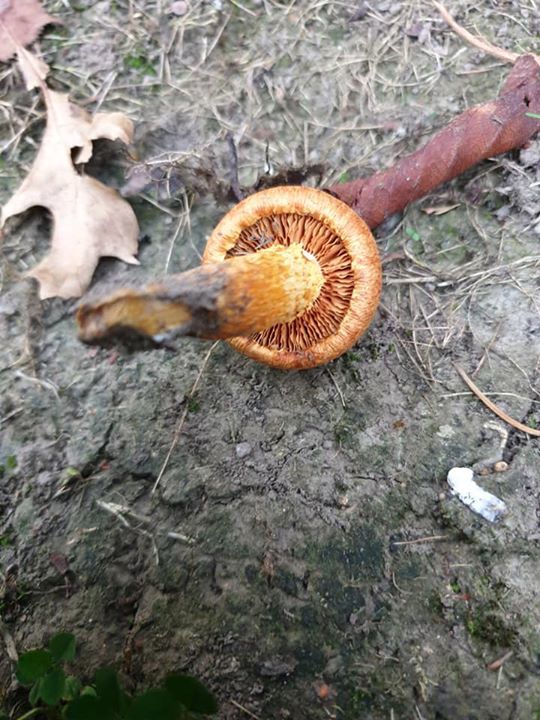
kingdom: Fungi
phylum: Basidiomycota
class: Agaricomycetes
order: Agaricales
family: Hymenogastraceae
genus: Gymnopilus
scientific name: Gymnopilus junonius
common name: Spectacular rustgill
